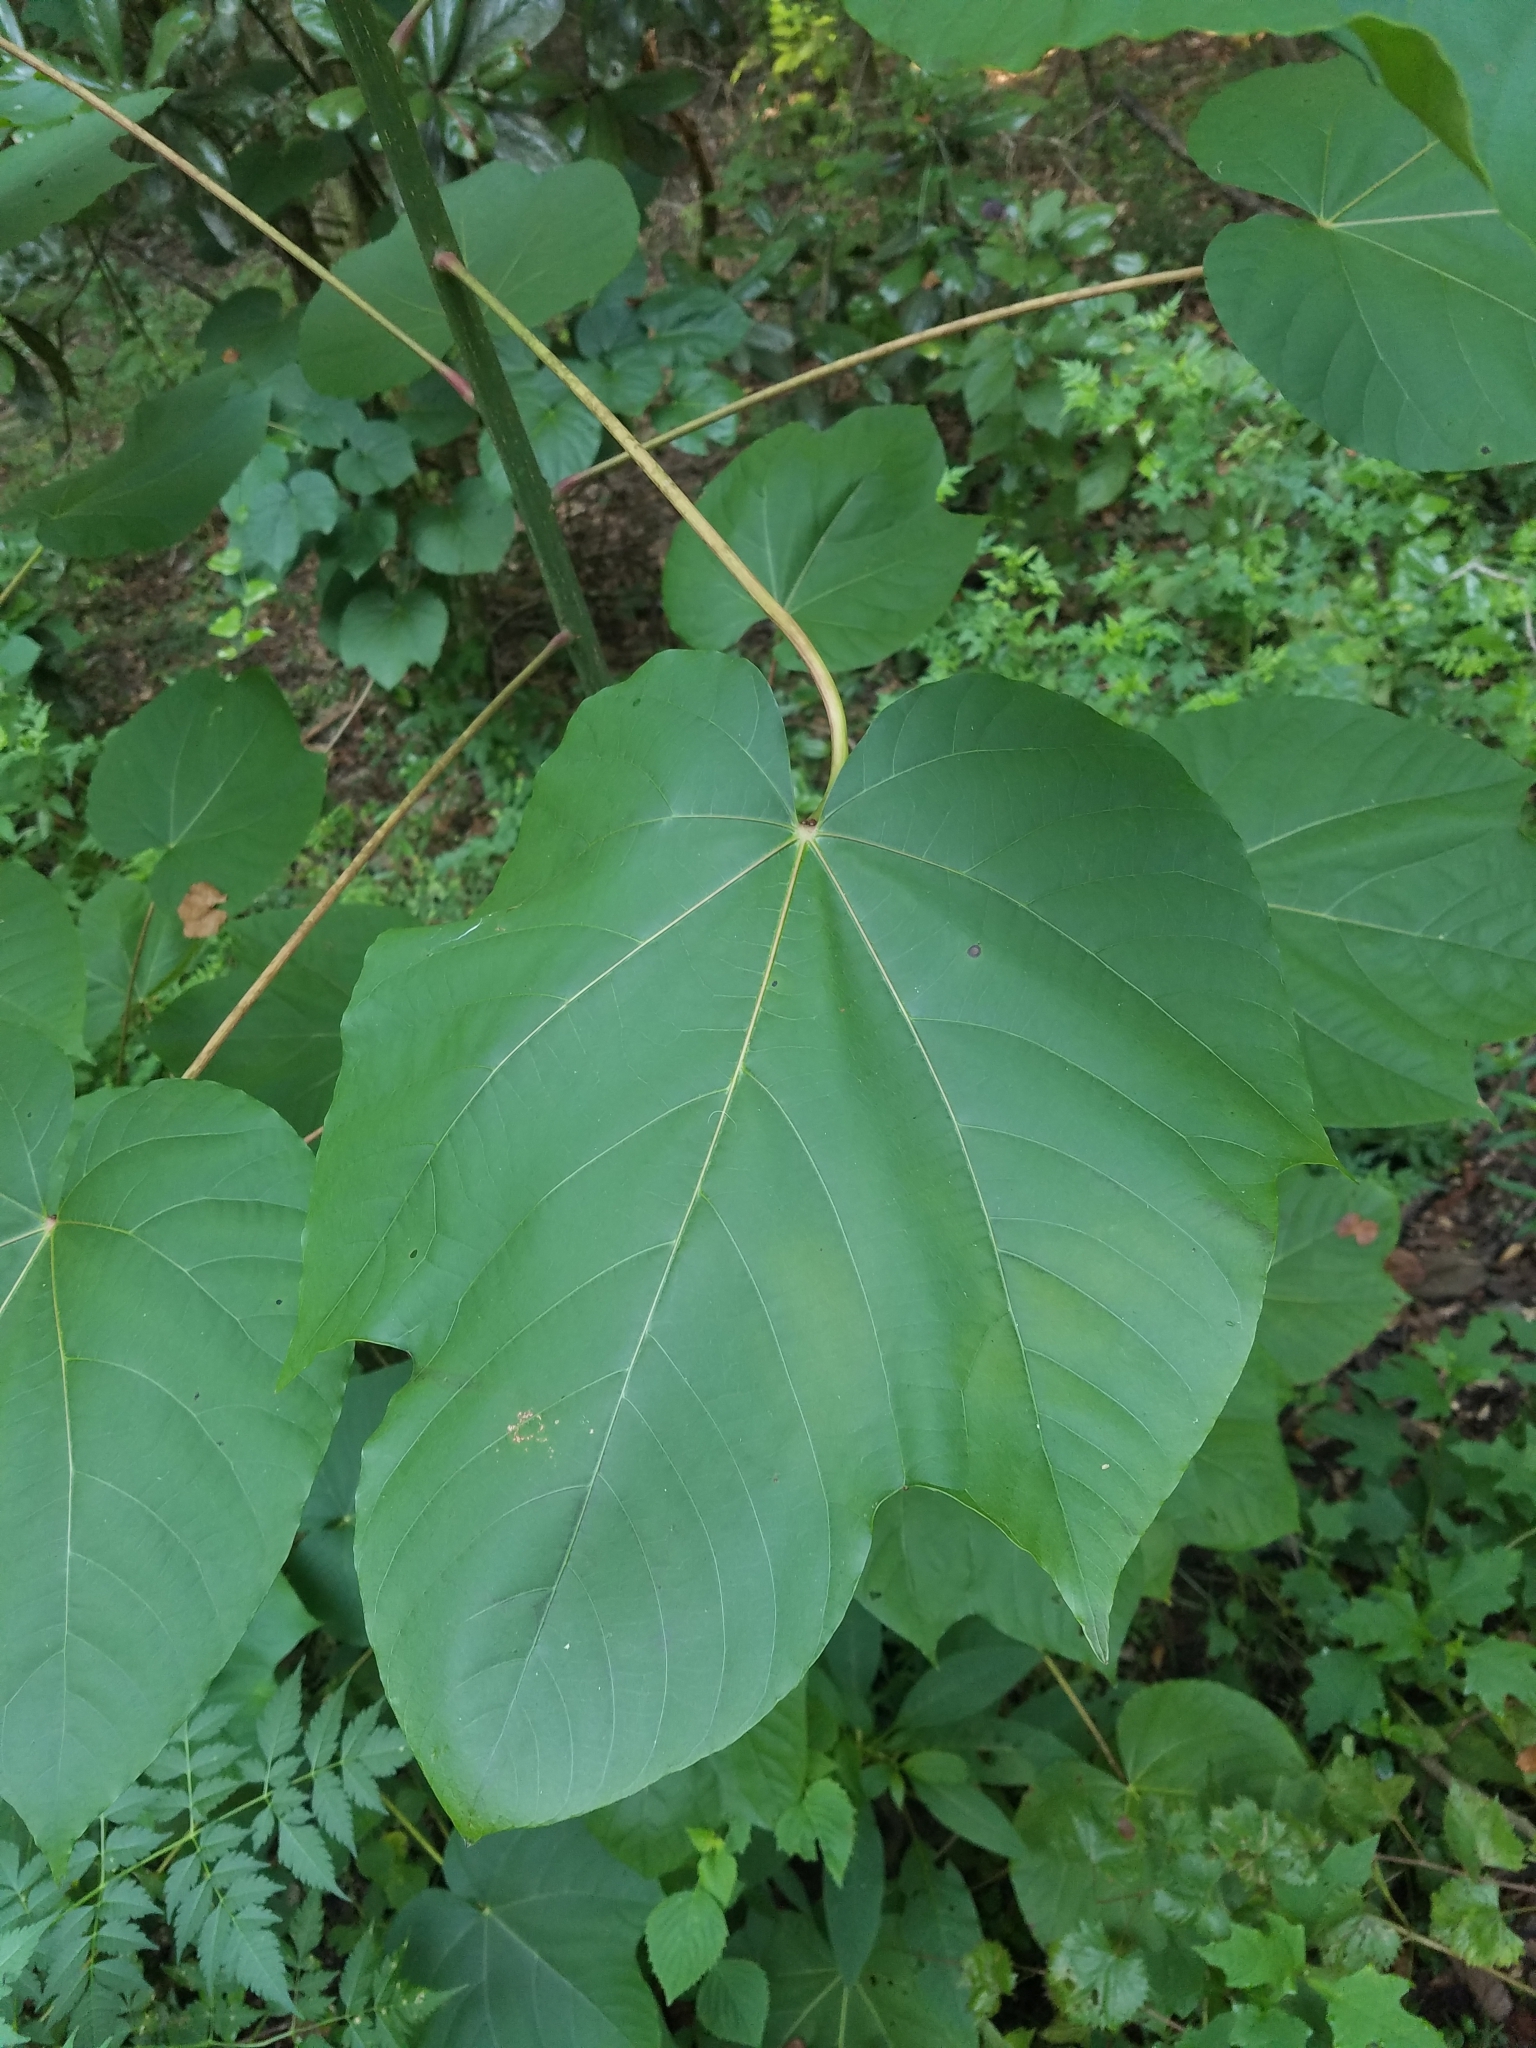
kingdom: Plantae
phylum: Tracheophyta
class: Magnoliopsida
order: Malpighiales
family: Euphorbiaceae
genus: Vernicia
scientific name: Vernicia fordii
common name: Tungoil tree
